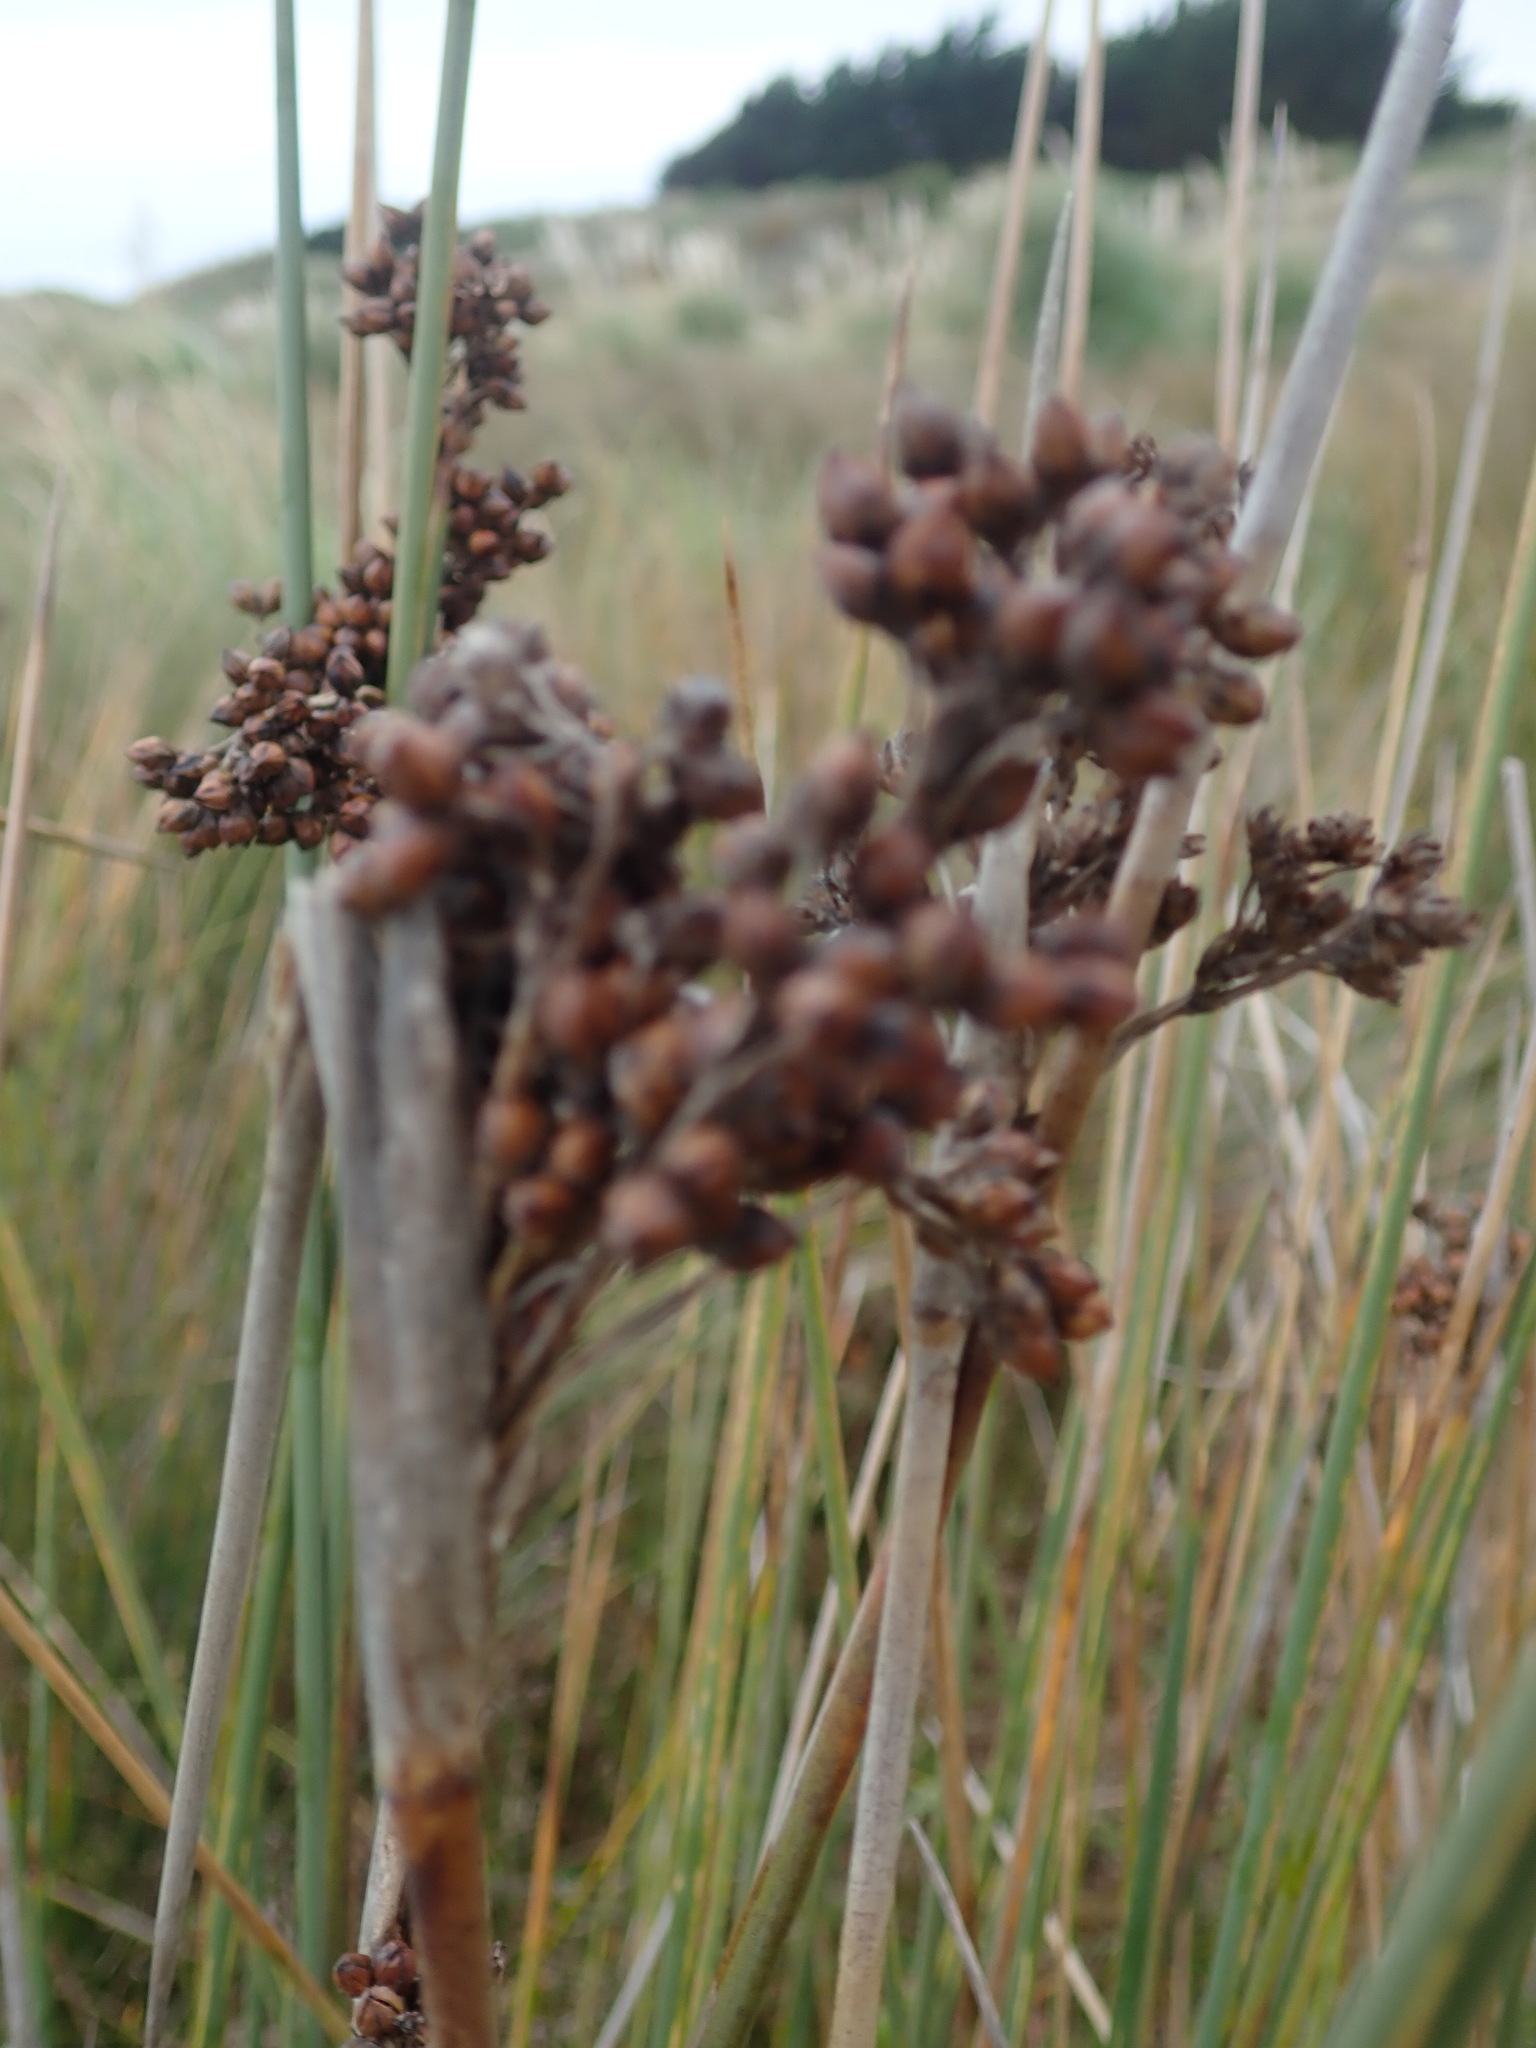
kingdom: Plantae
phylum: Tracheophyta
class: Liliopsida
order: Poales
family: Juncaceae
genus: Juncus
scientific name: Juncus acutus
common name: Sharp rush
